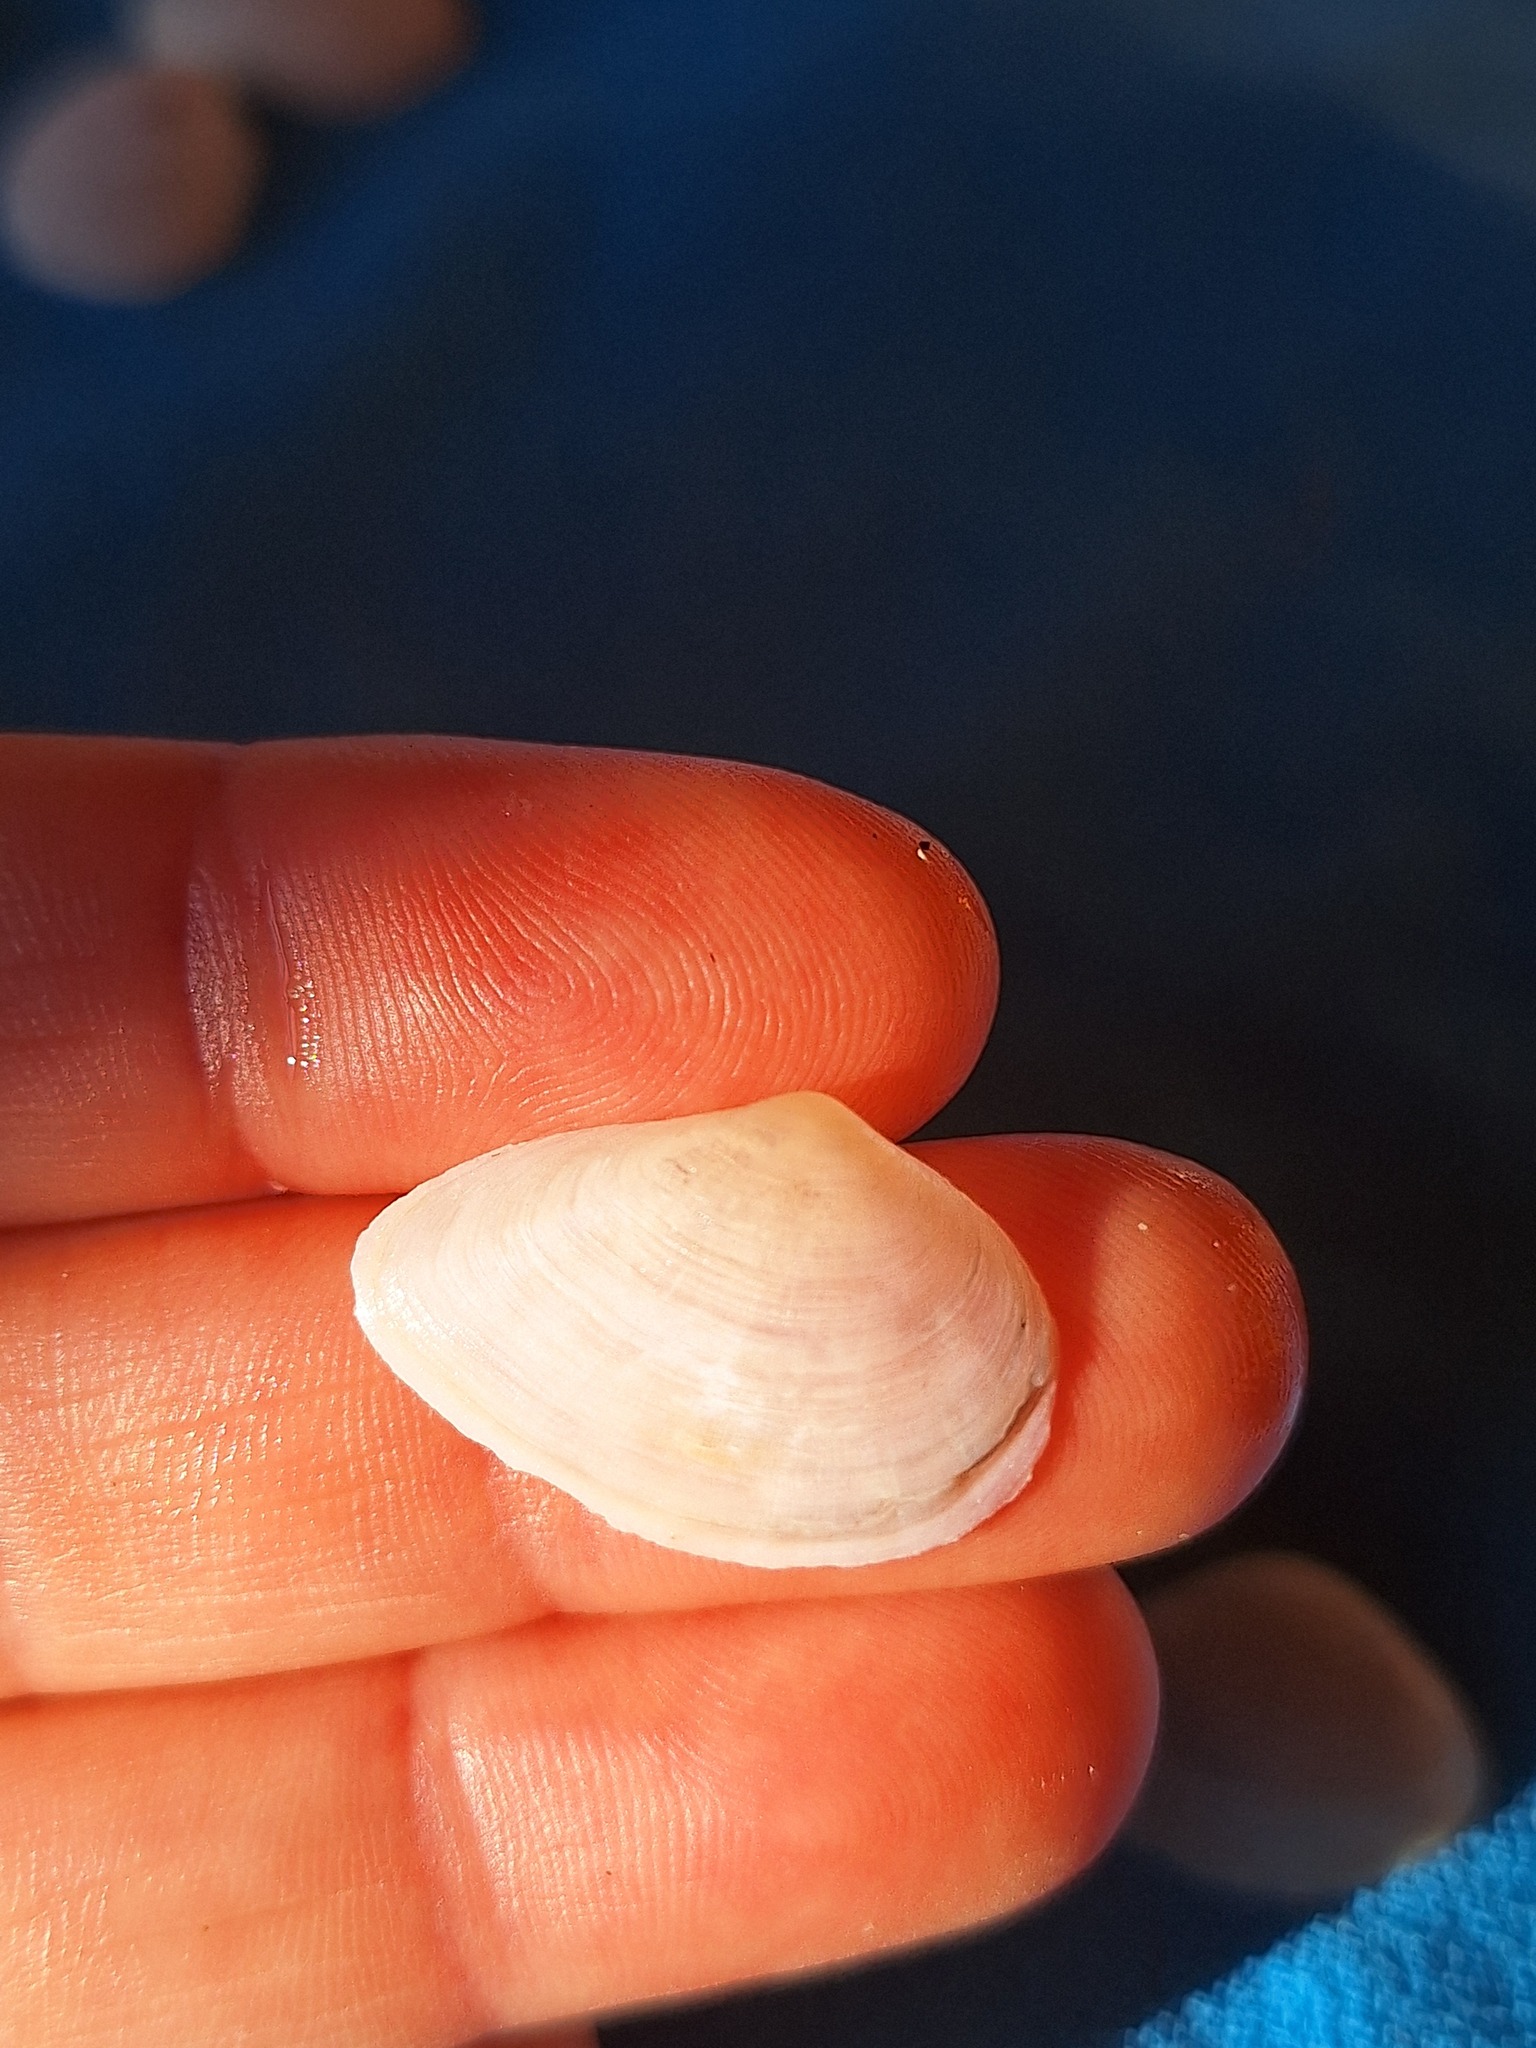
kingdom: Animalia
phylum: Mollusca
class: Bivalvia
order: Cardiida
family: Tellinidae
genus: Gastrana
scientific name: Gastrana fragilis
